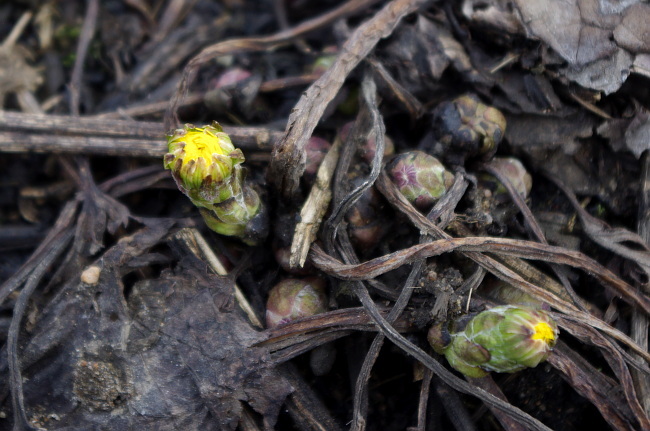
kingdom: Plantae
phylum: Tracheophyta
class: Magnoliopsida
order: Asterales
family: Asteraceae
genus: Tussilago
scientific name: Tussilago farfara
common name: Coltsfoot
